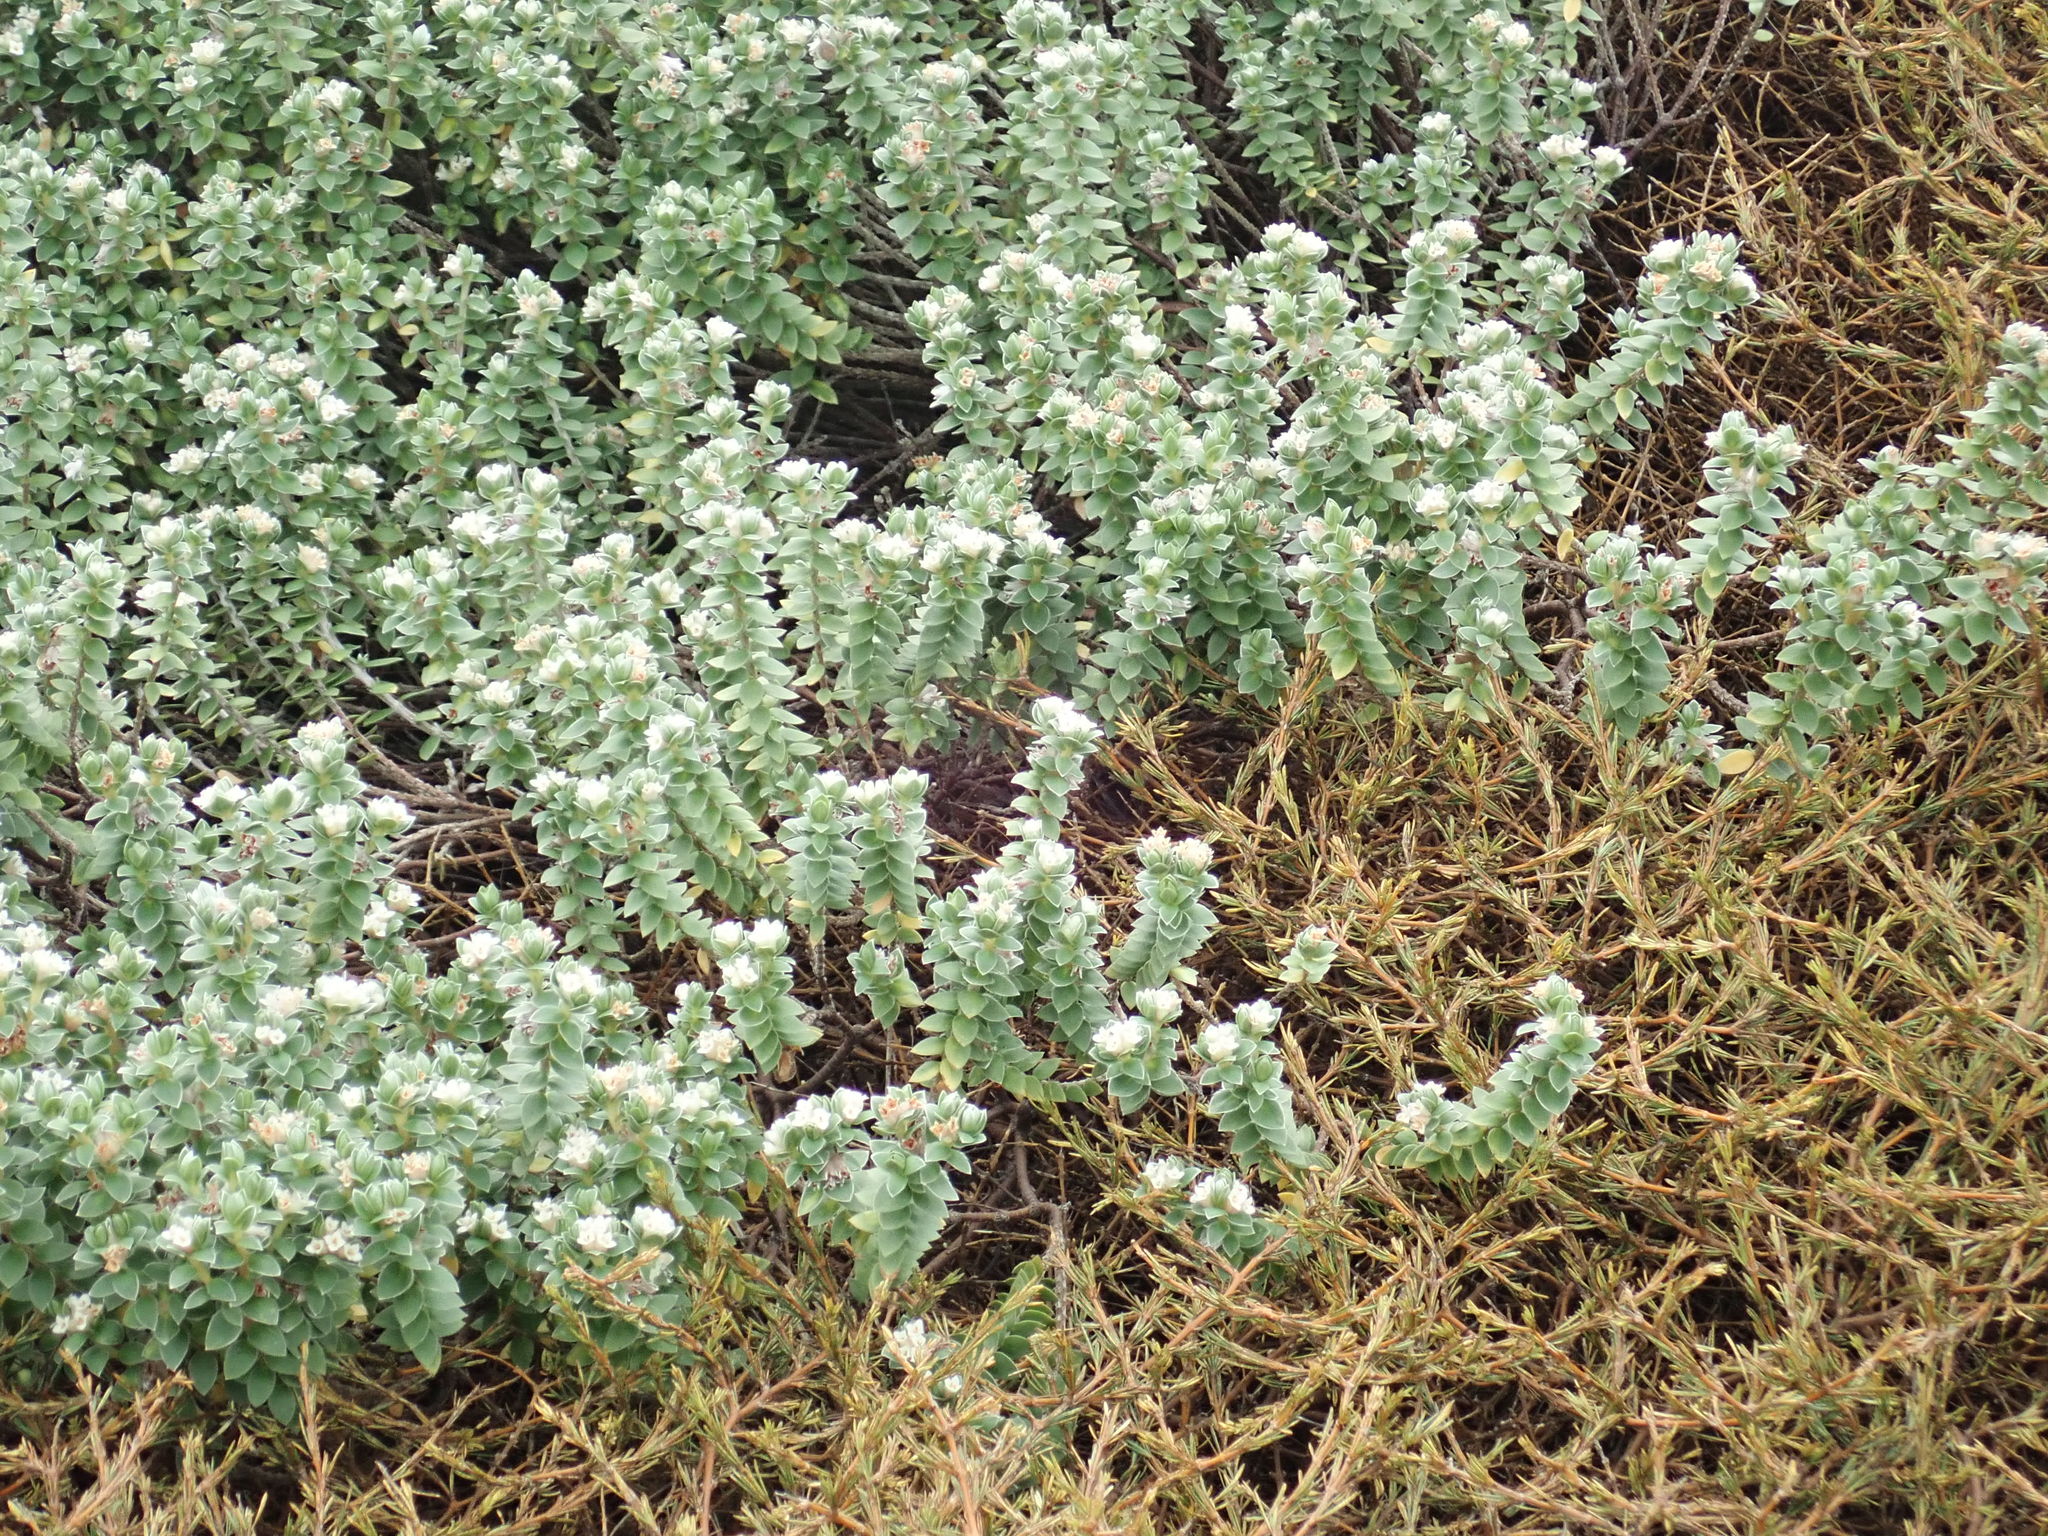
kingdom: Plantae
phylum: Tracheophyta
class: Magnoliopsida
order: Malvales
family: Thymelaeaceae
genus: Pimelea
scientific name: Pimelea villosa
